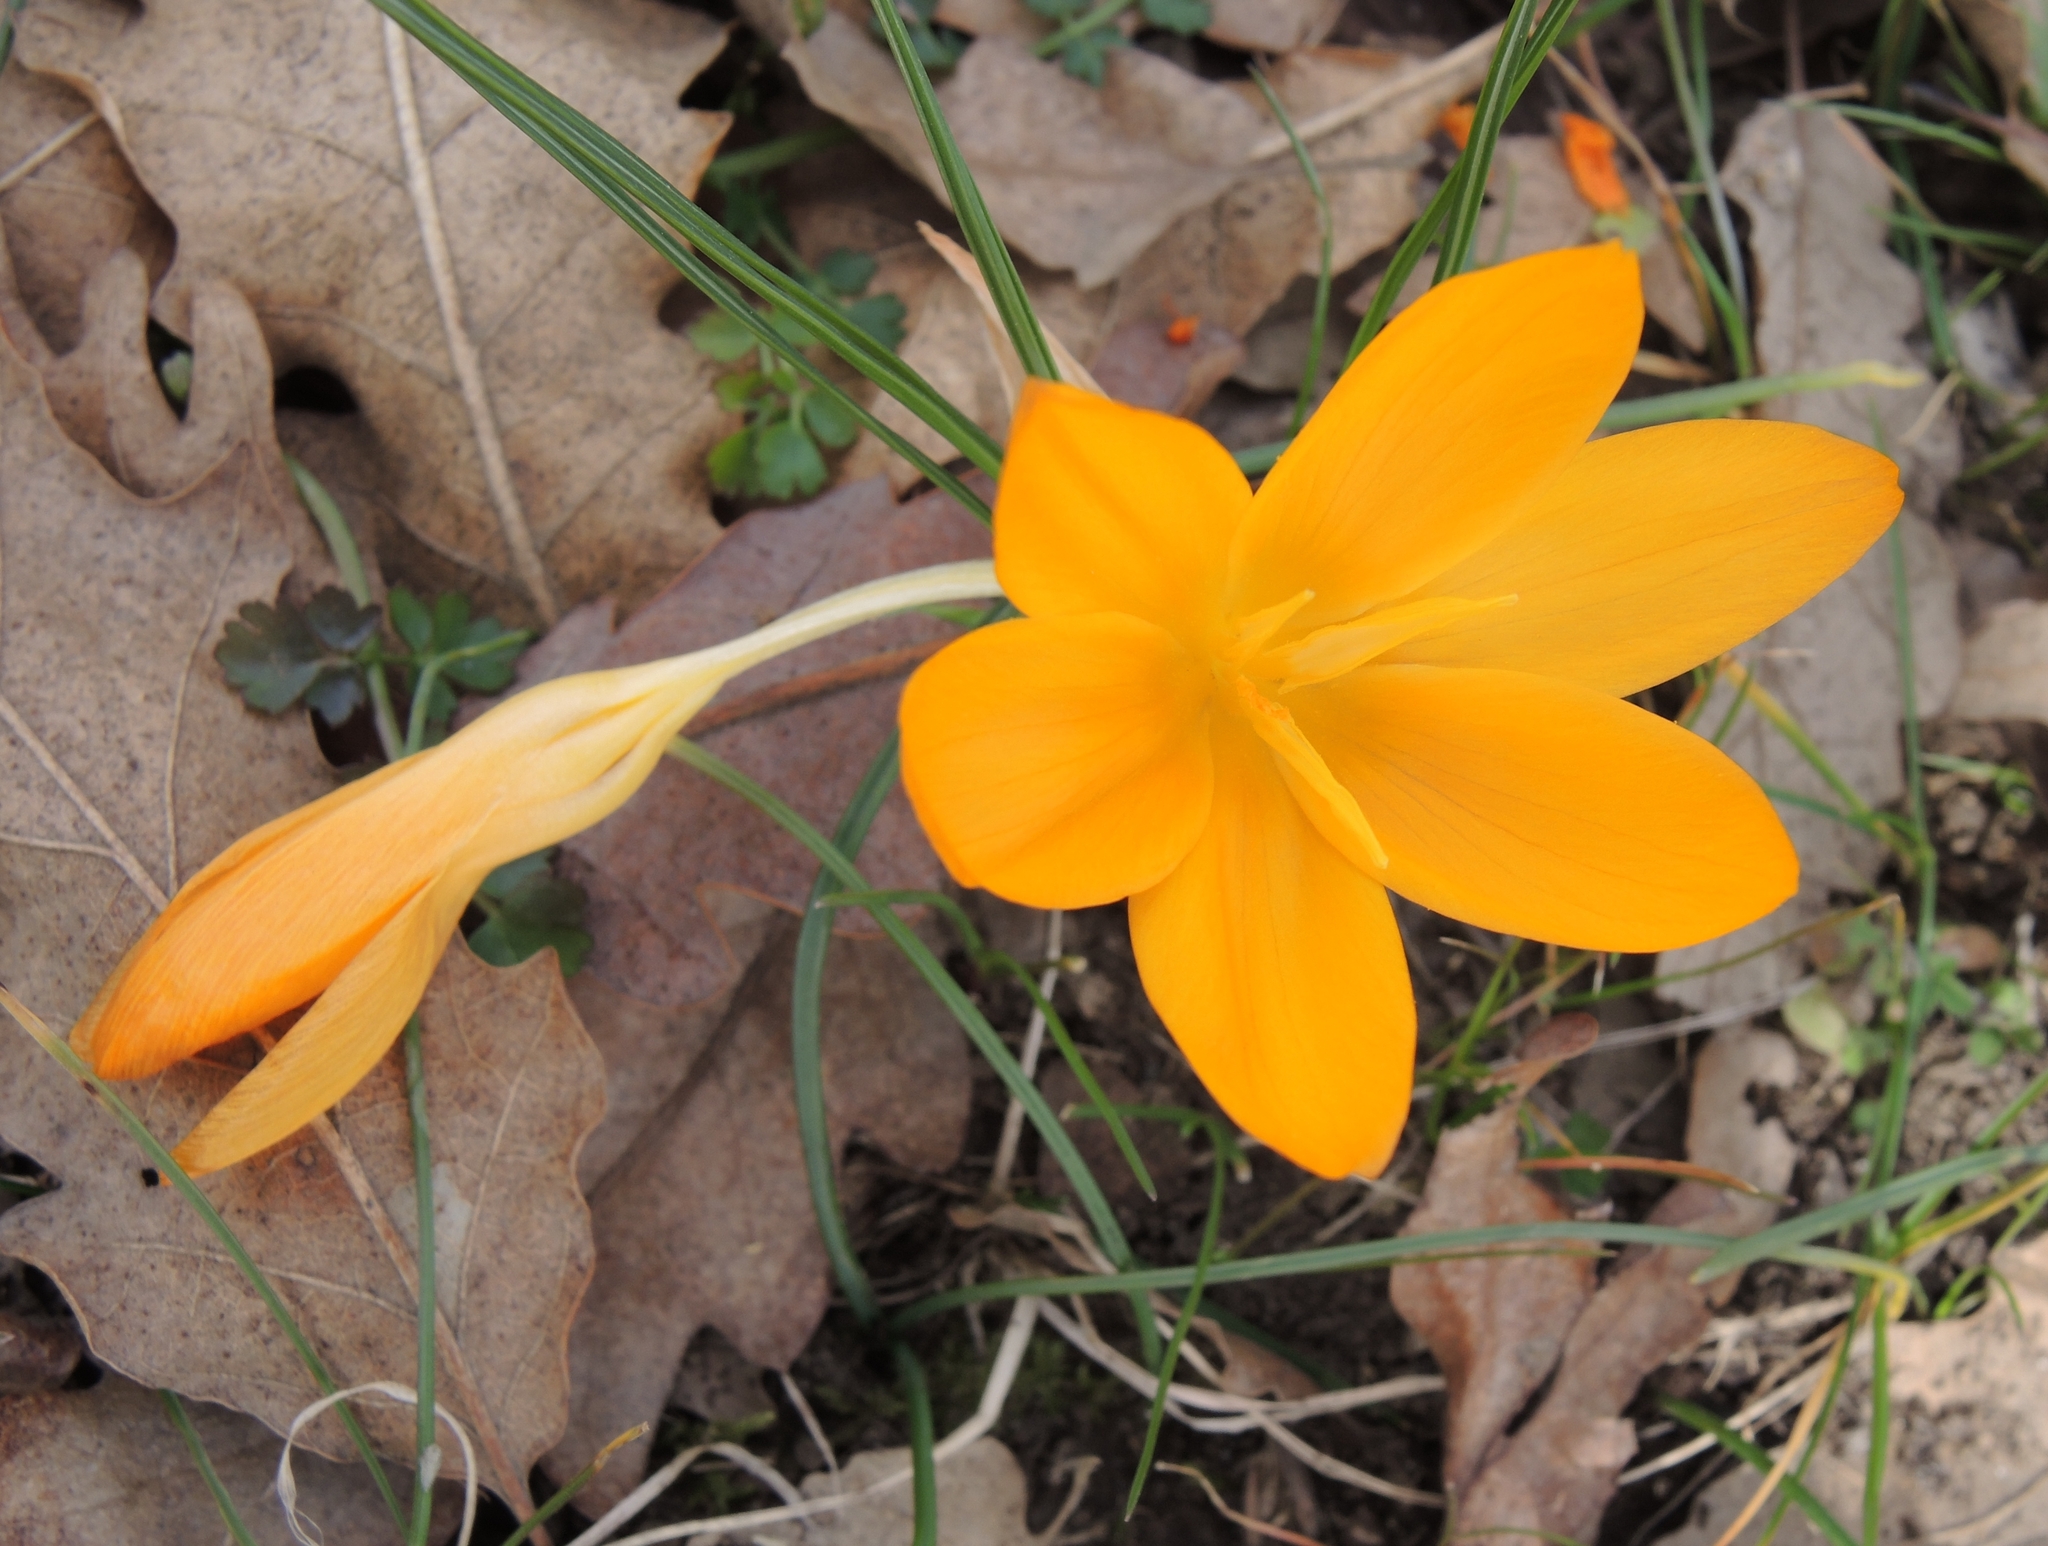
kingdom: Plantae
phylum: Tracheophyta
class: Liliopsida
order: Asparagales
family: Iridaceae
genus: Crocus
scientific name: Crocus olivieri
